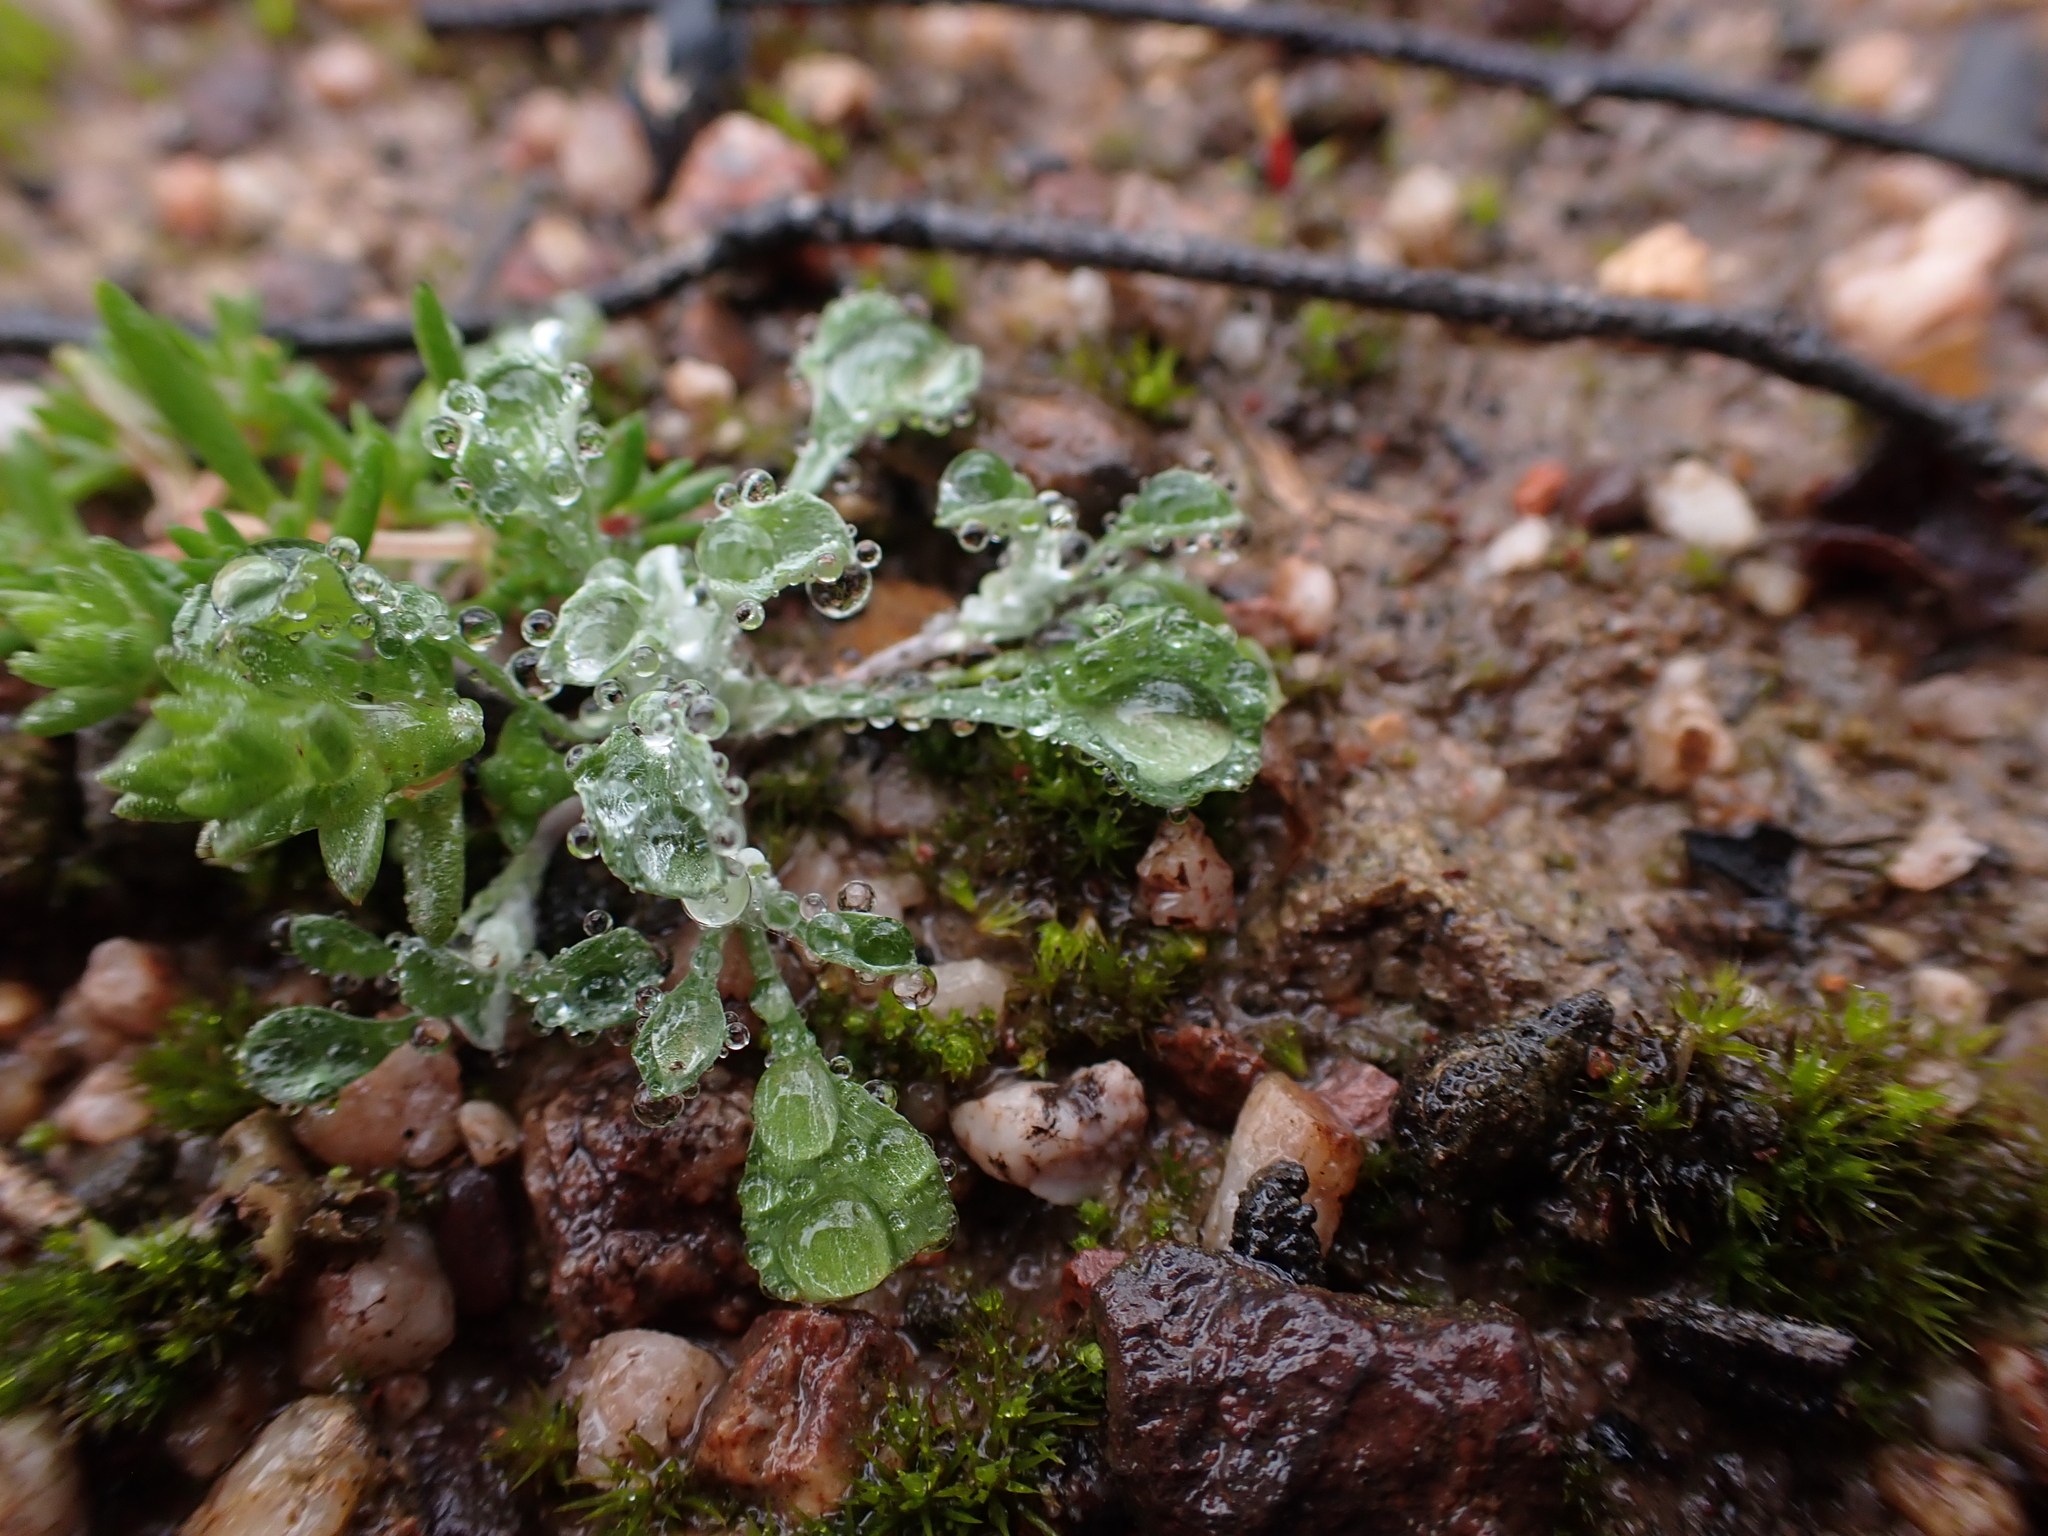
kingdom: Plantae
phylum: Tracheophyta
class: Magnoliopsida
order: Asterales
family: Asteraceae
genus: Stuartina
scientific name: Stuartina muelleri
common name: Spoon-leaved cudweed
